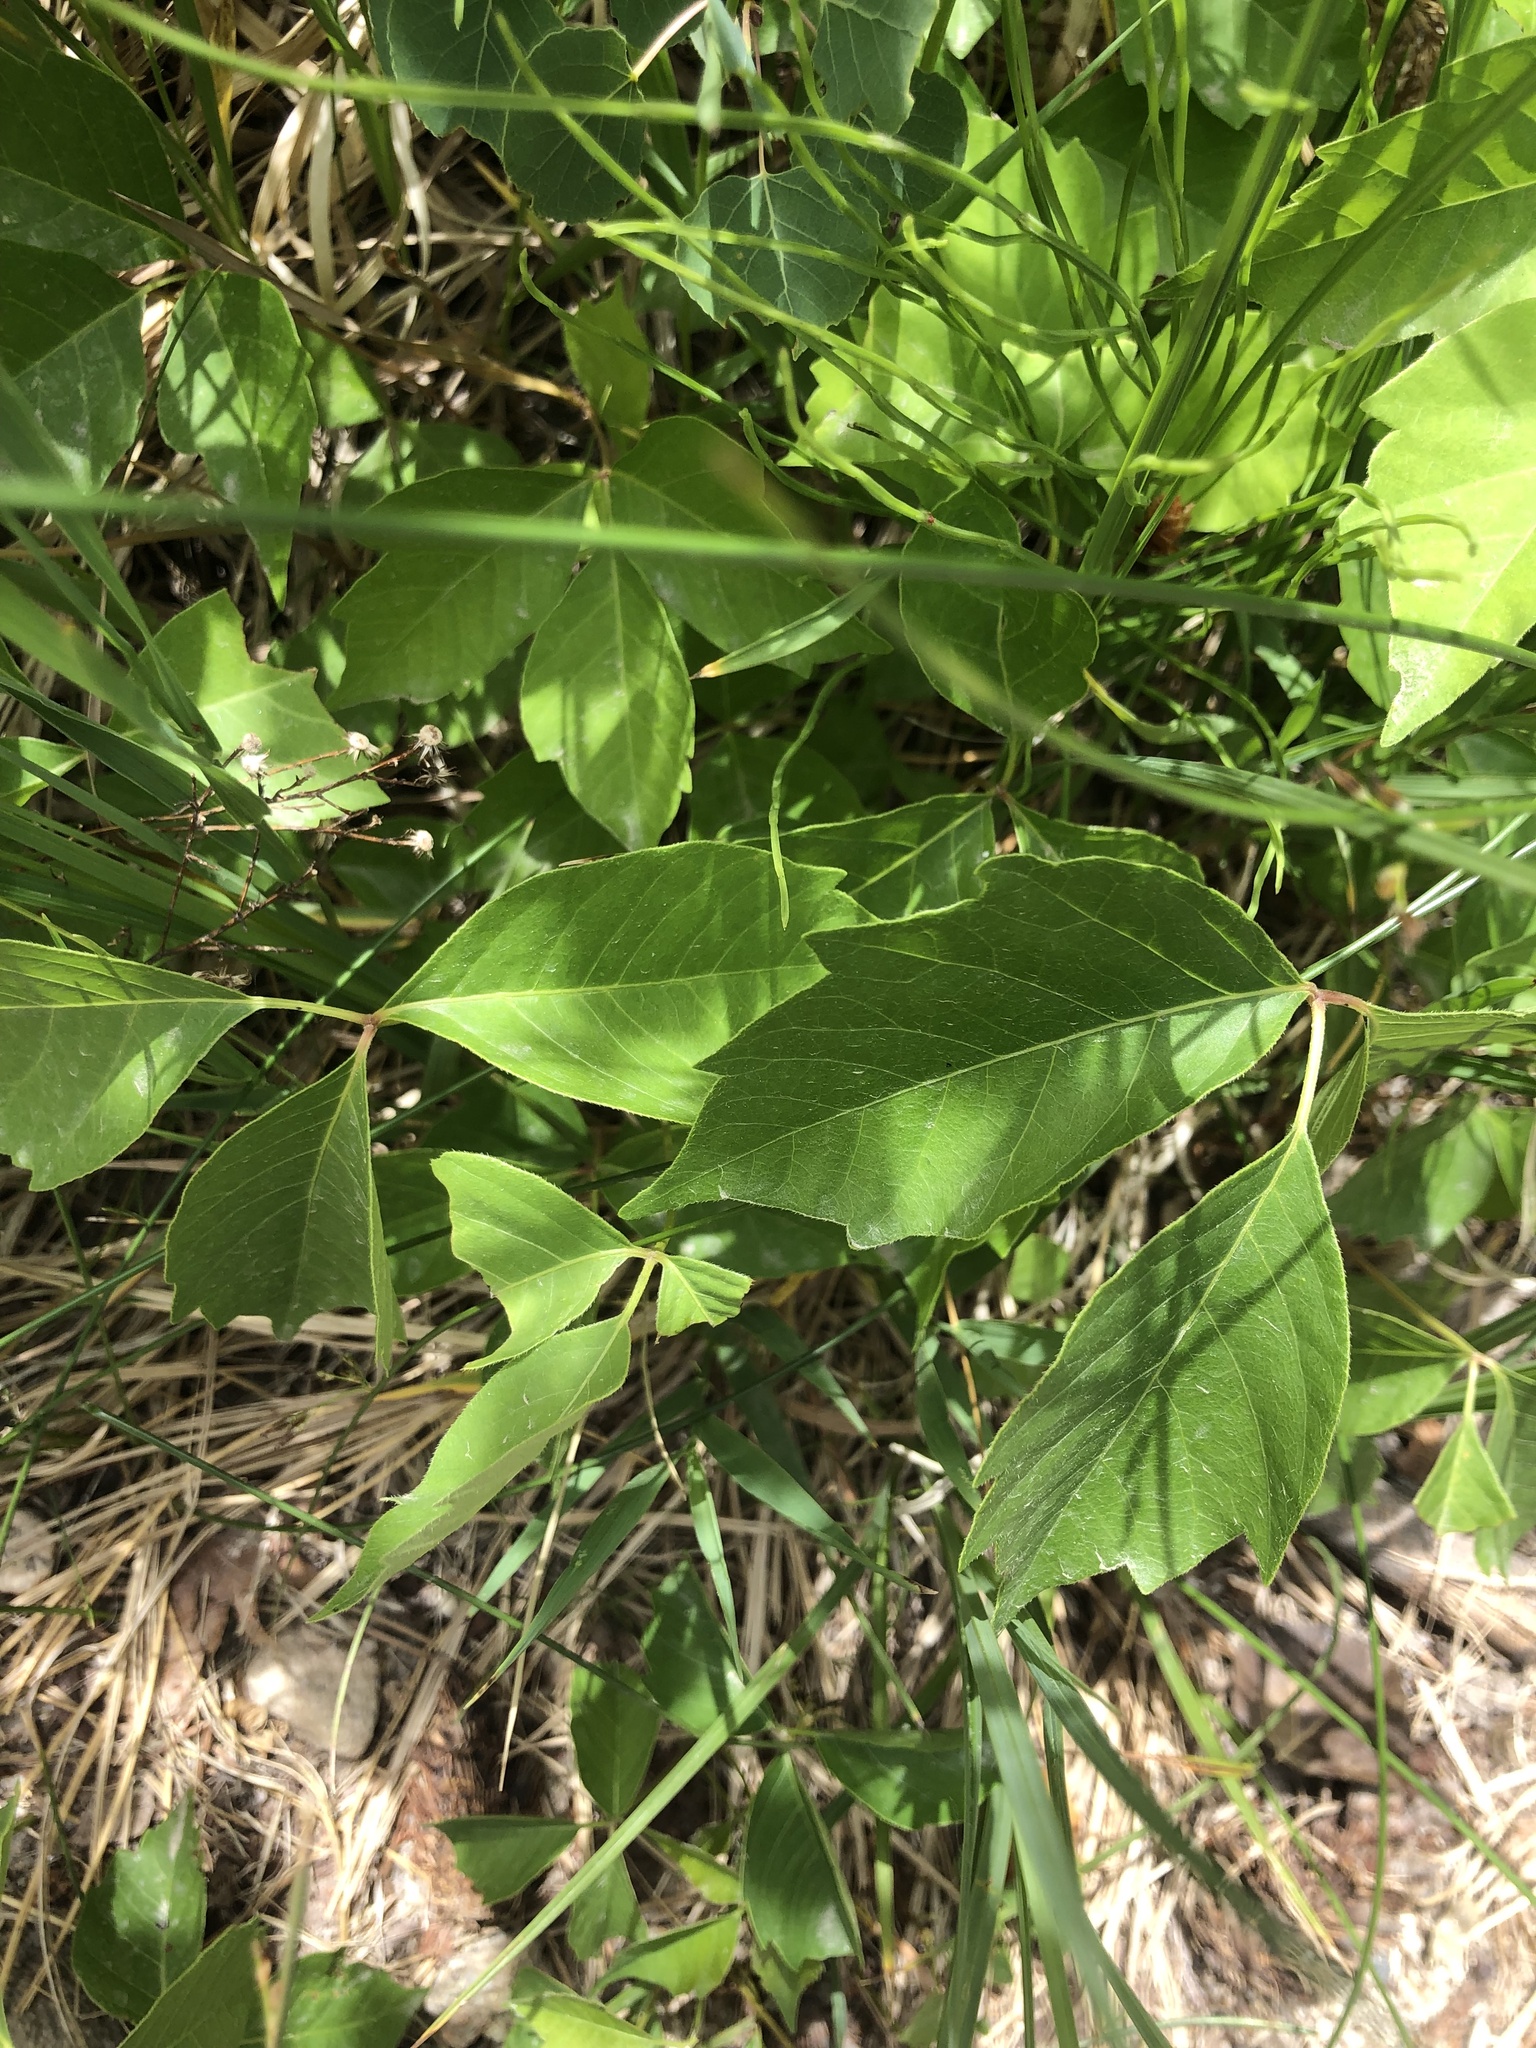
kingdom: Plantae
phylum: Tracheophyta
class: Magnoliopsida
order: Sapindales
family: Anacardiaceae
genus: Toxicodendron
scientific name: Toxicodendron rydbergii
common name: Rydberg's poison-ivy
